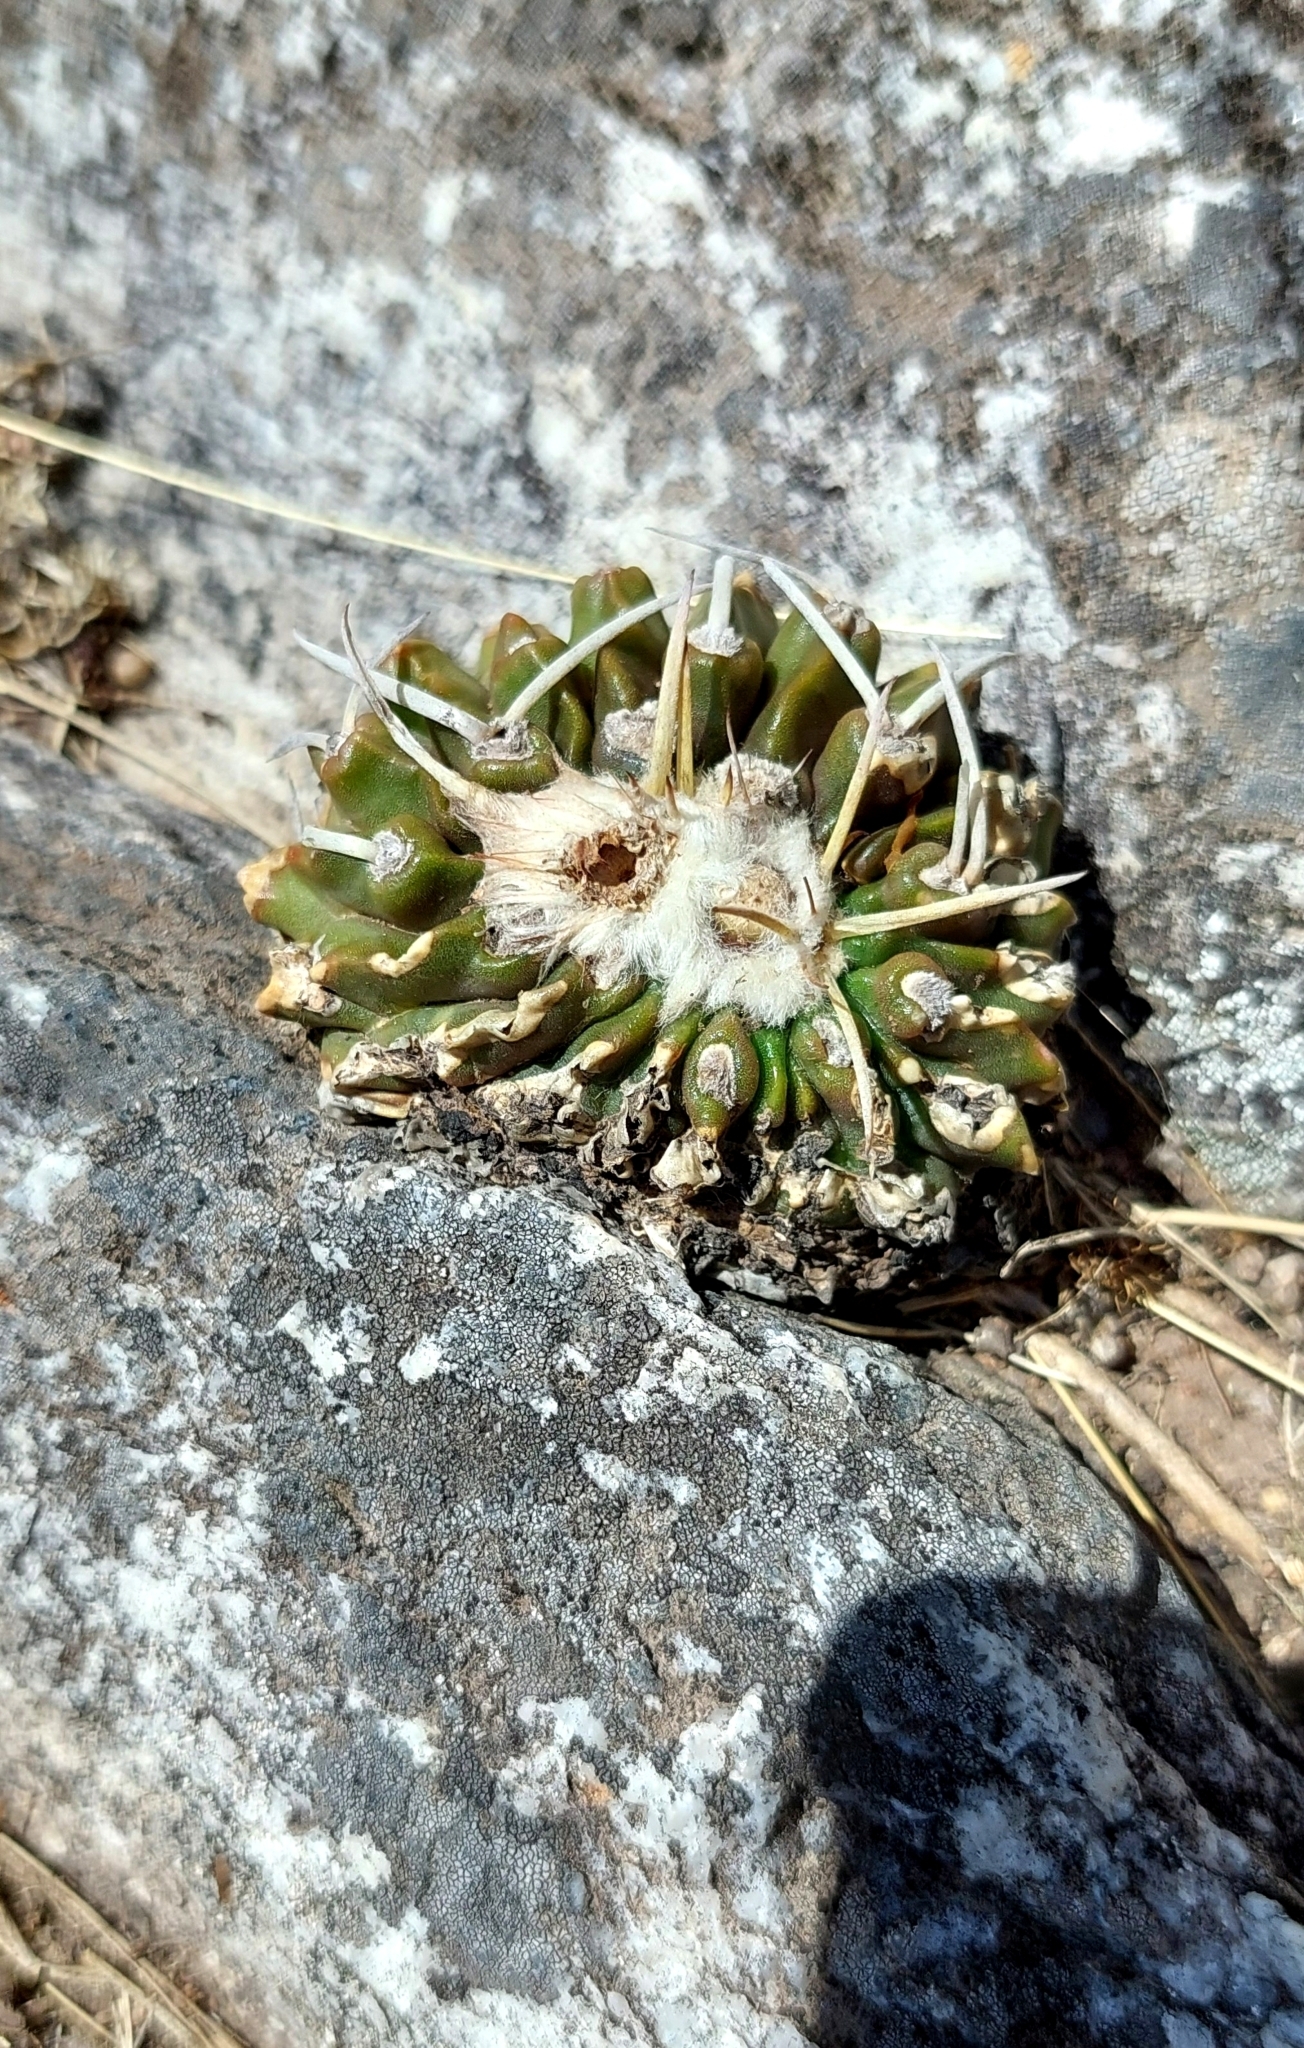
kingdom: Plantae
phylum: Tracheophyta
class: Magnoliopsida
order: Caryophyllales
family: Cactaceae
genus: Parodia
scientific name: Parodia erinacea
